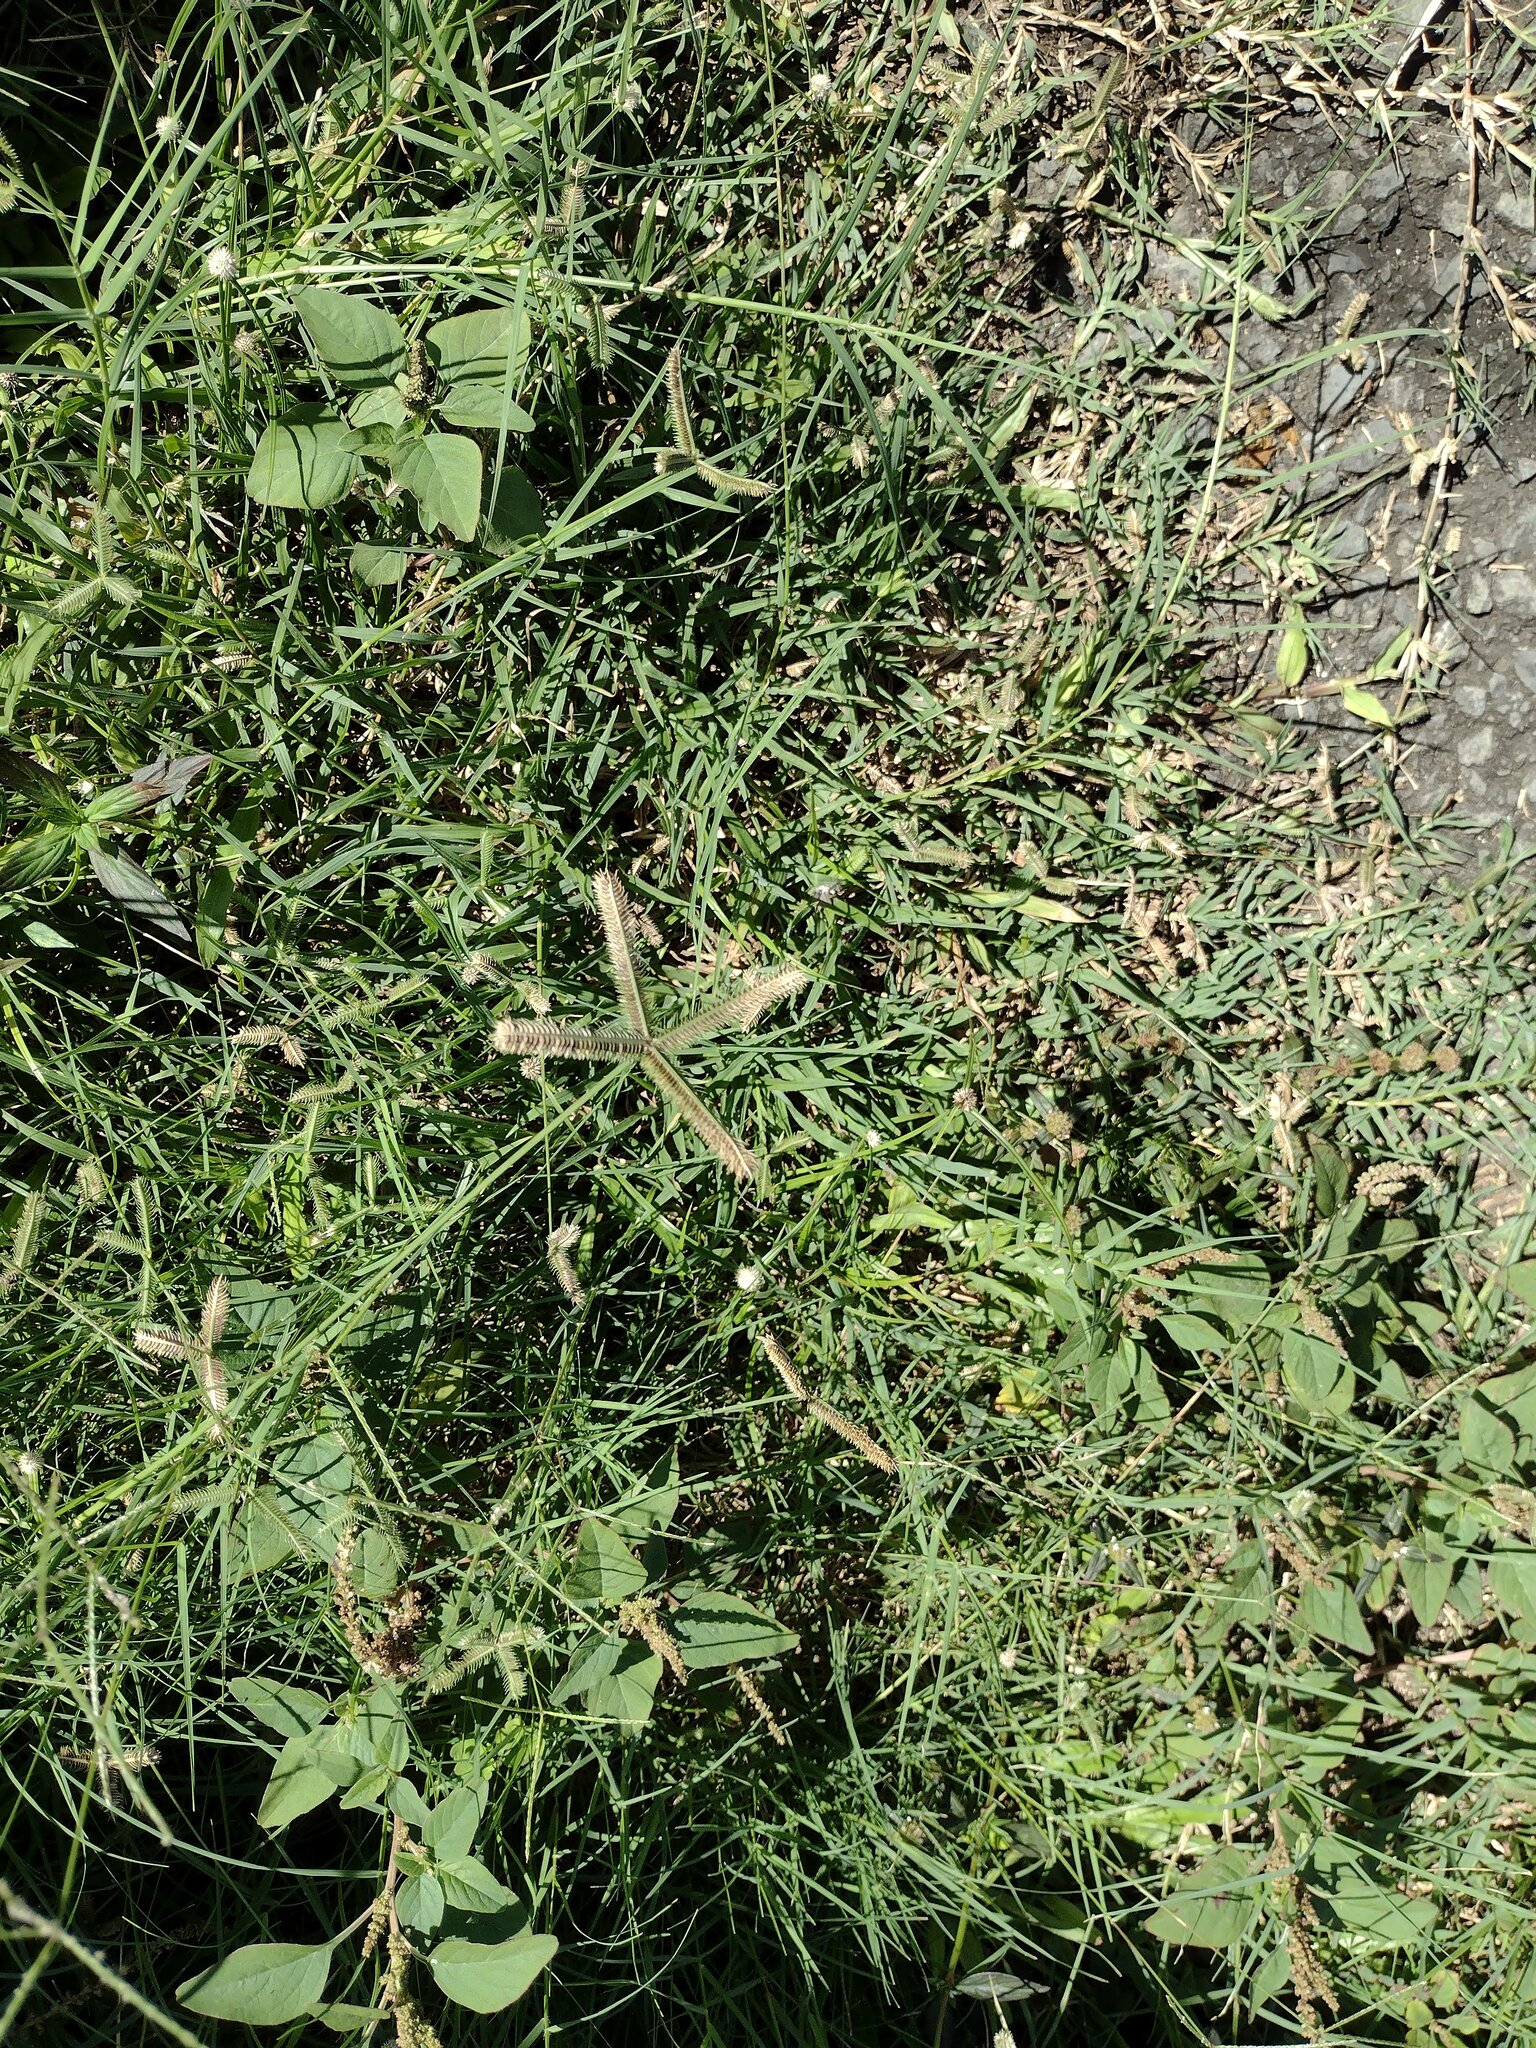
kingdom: Plantae
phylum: Tracheophyta
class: Liliopsida
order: Poales
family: Poaceae
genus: Dactyloctenium
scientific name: Dactyloctenium aegyptium
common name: Egyptian grass
